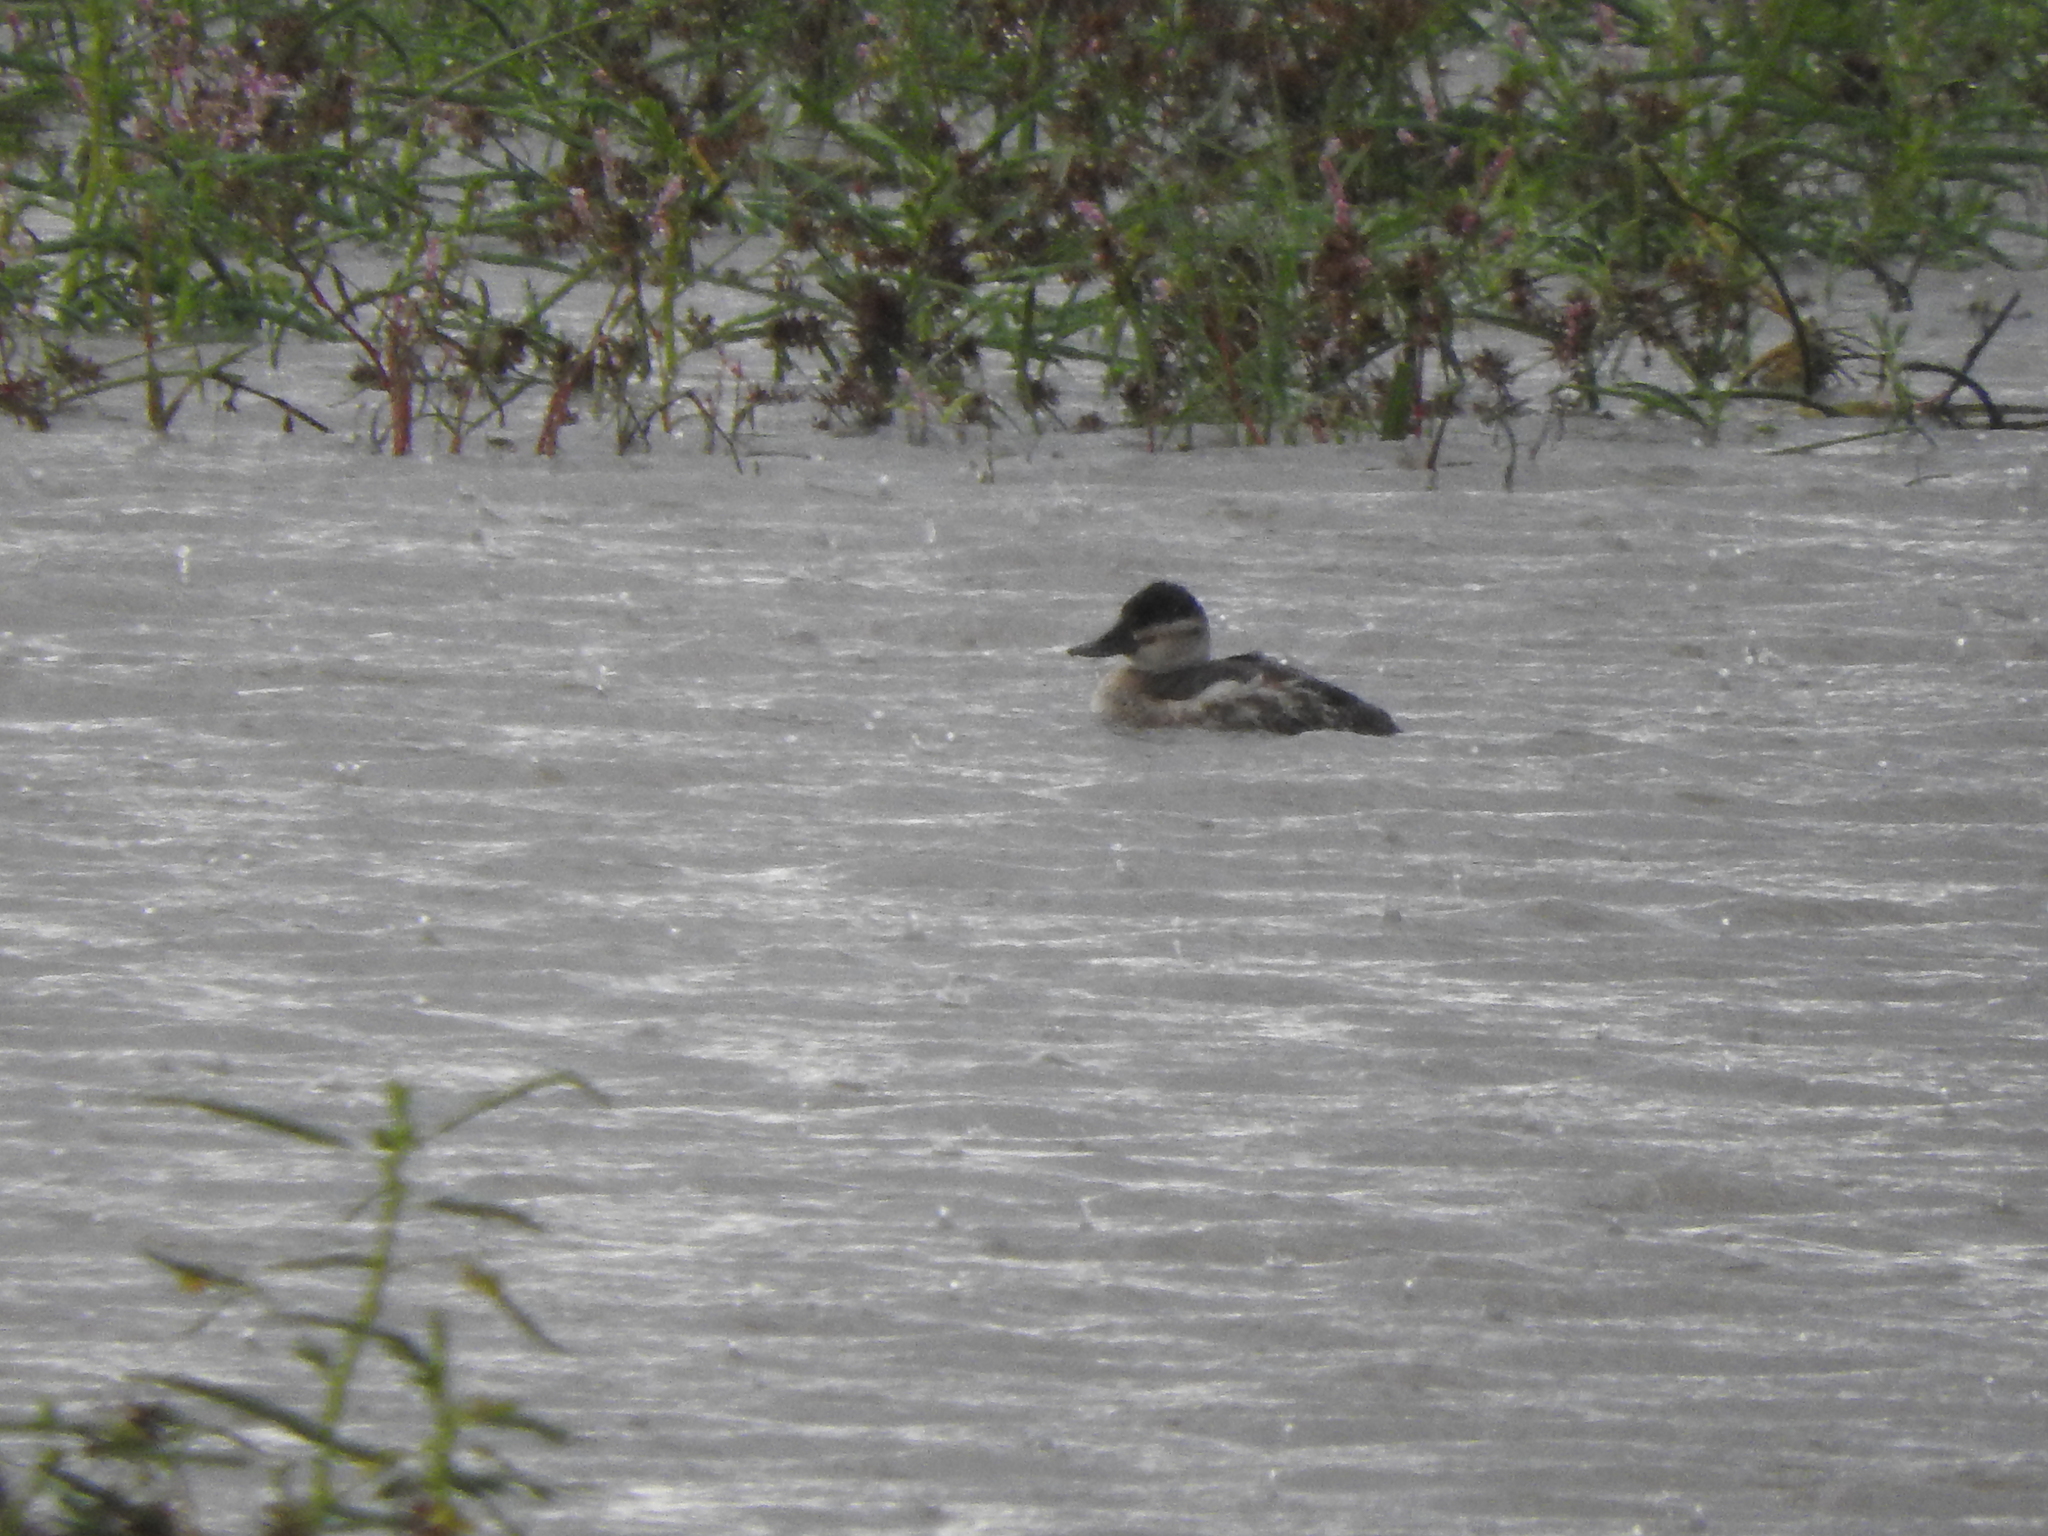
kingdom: Animalia
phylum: Chordata
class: Aves
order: Anseriformes
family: Anatidae
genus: Oxyura
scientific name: Oxyura jamaicensis
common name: Ruddy duck
